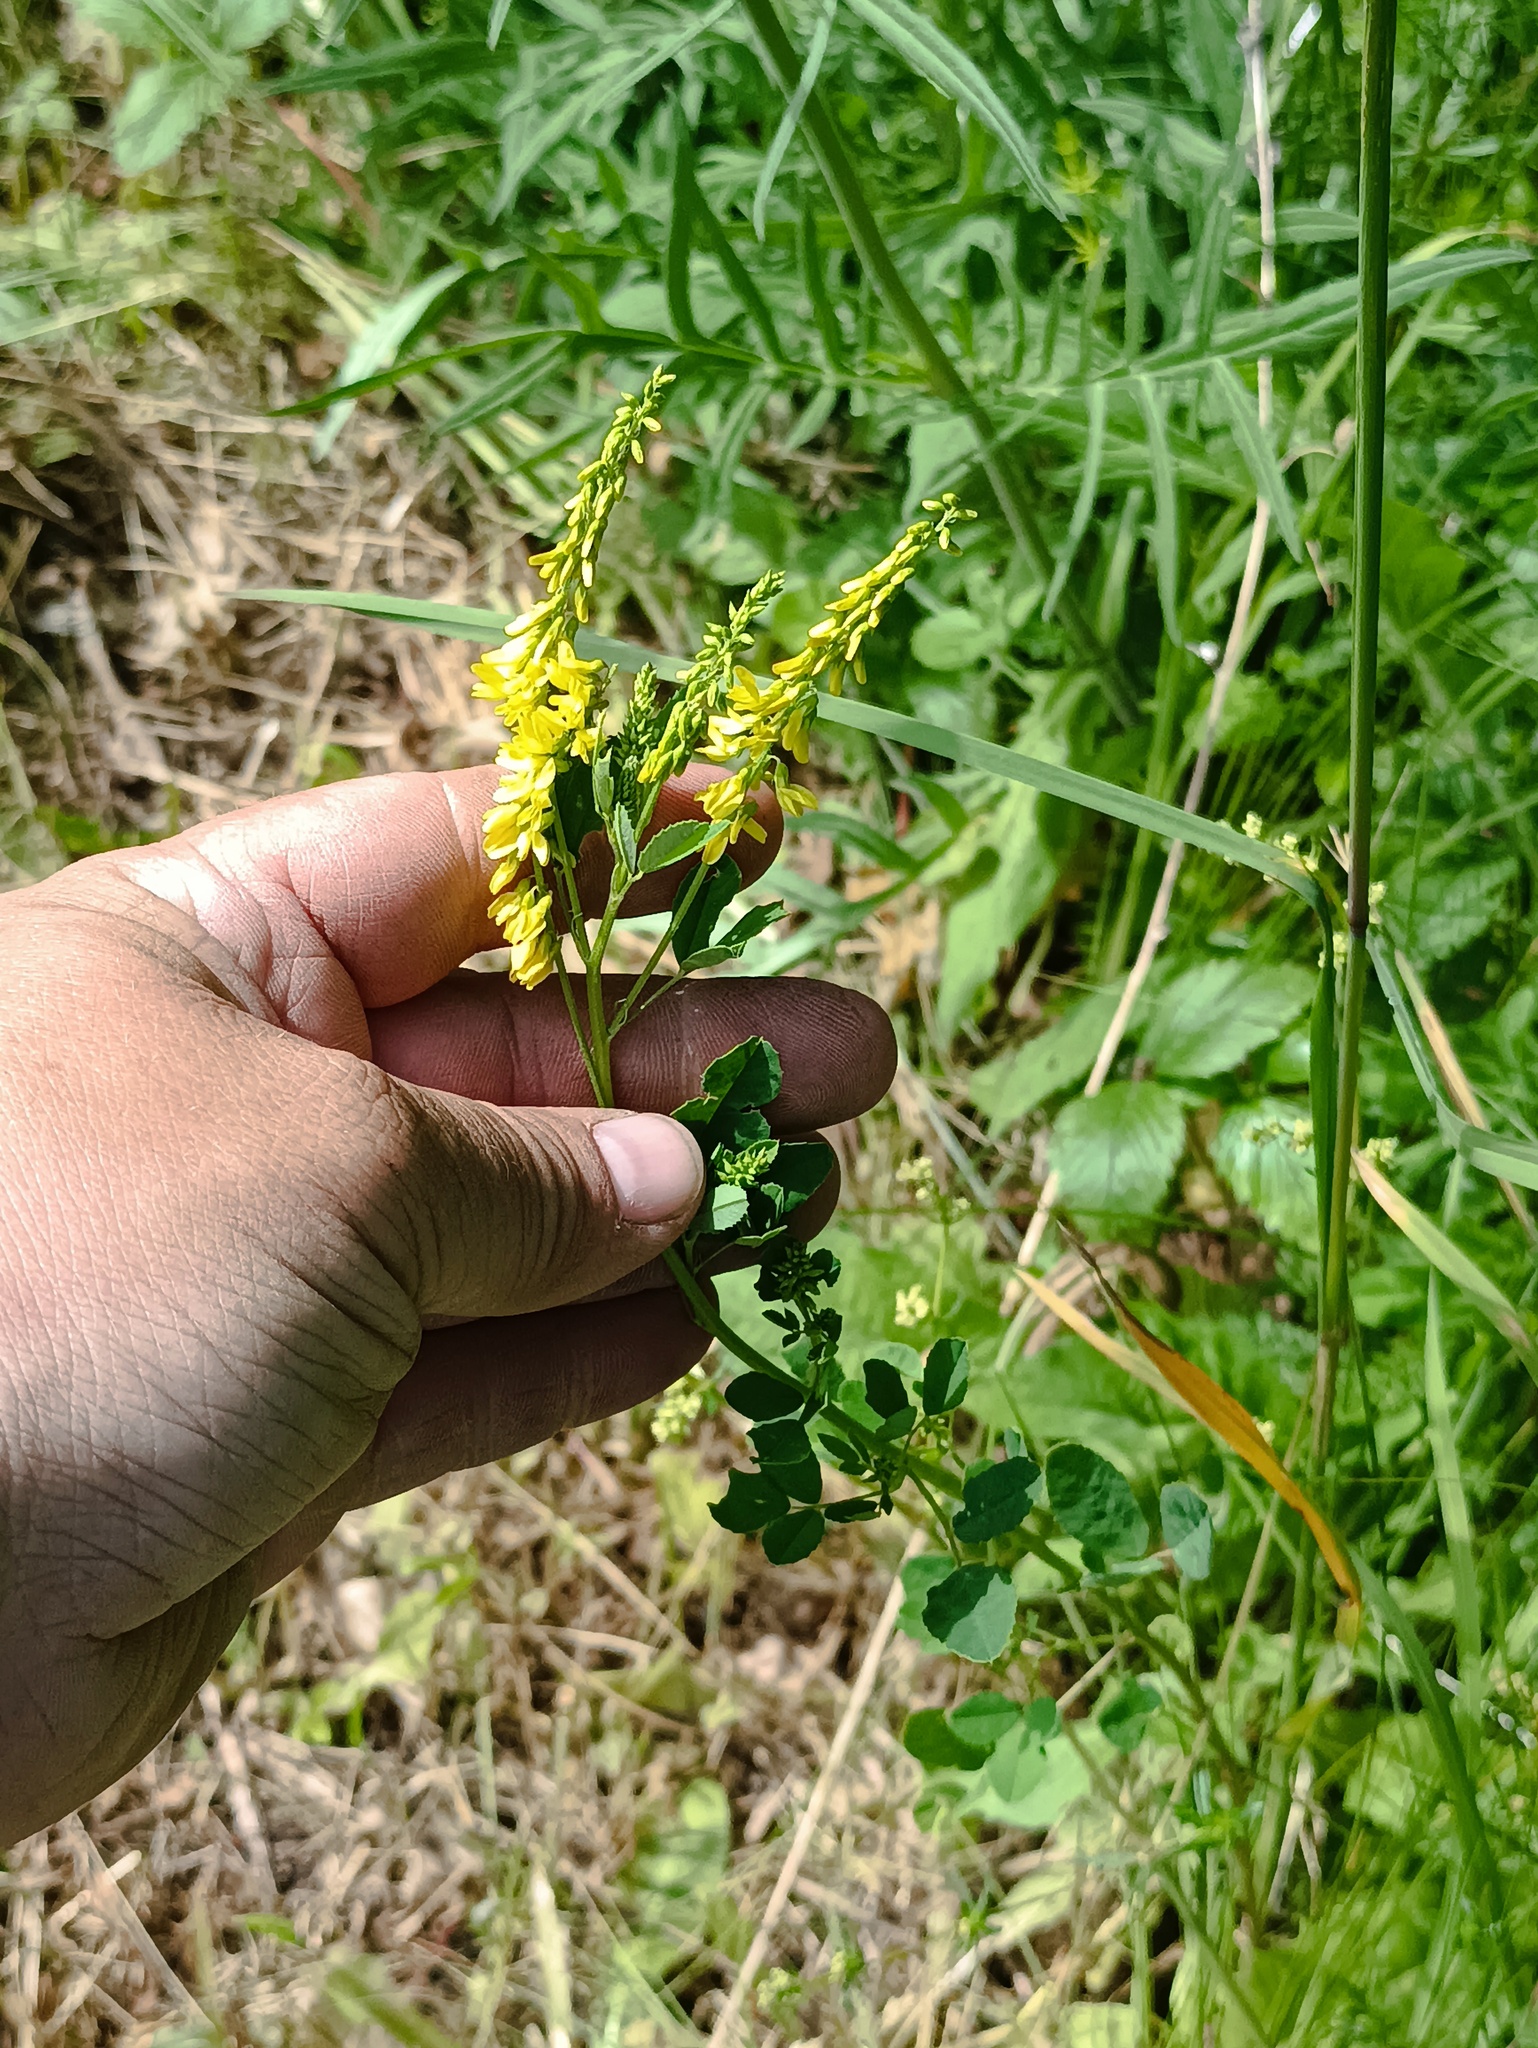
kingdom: Plantae
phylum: Tracheophyta
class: Magnoliopsida
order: Fabales
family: Fabaceae
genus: Melilotus
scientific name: Melilotus officinalis
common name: Sweetclover
